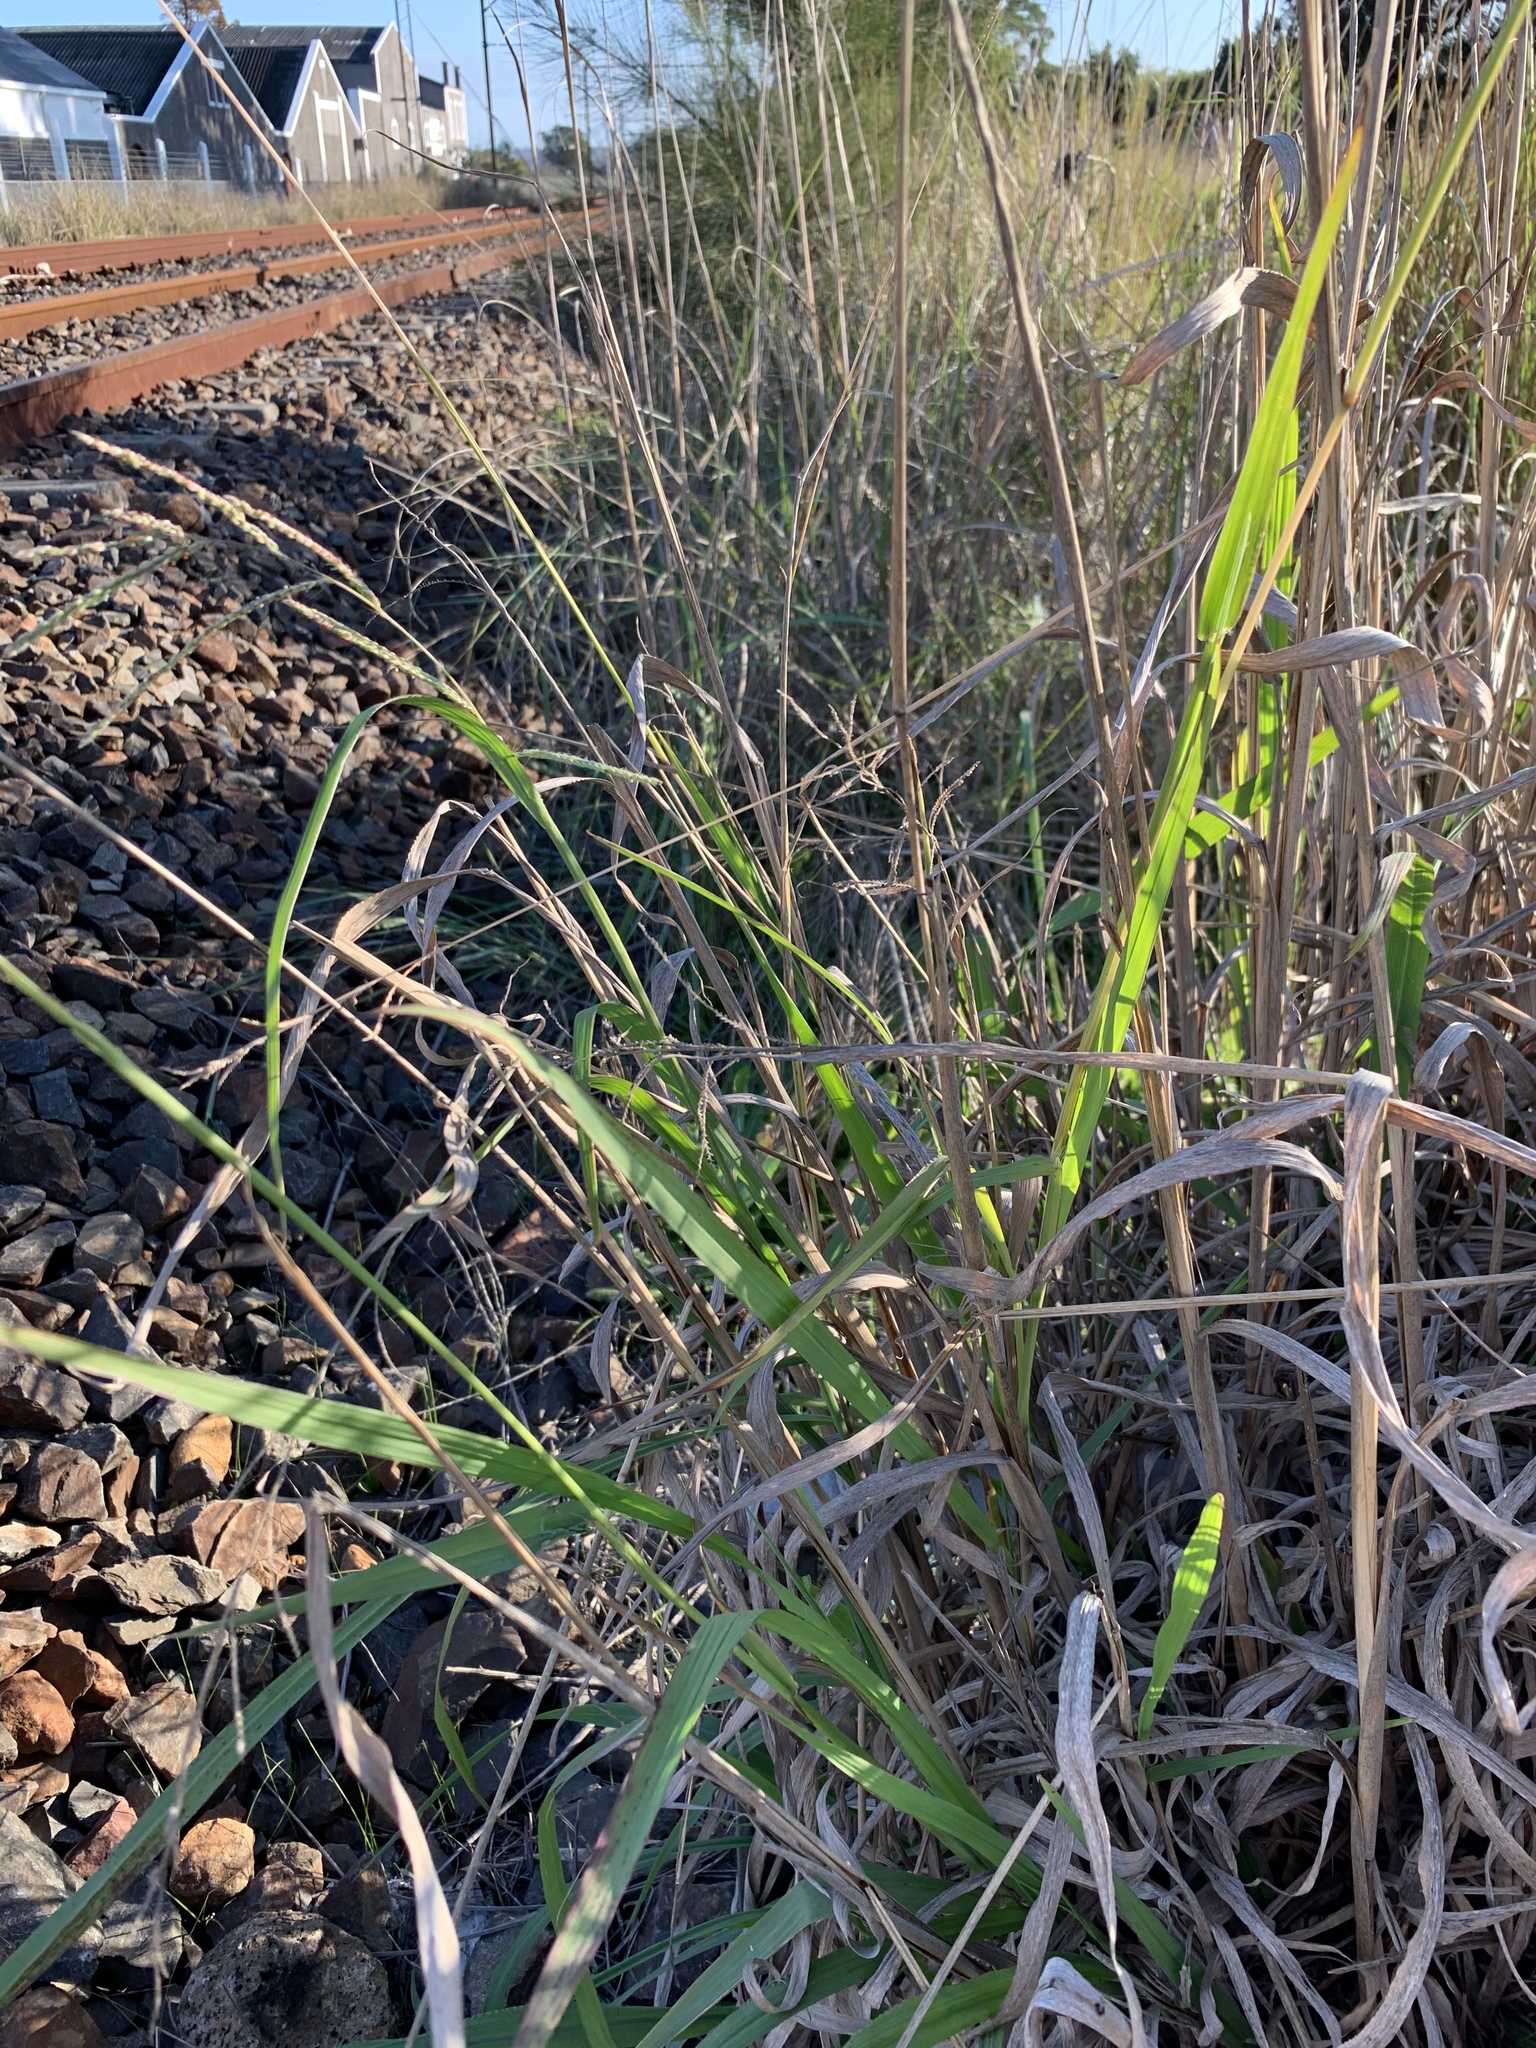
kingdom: Plantae
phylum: Tracheophyta
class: Liliopsida
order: Poales
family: Poaceae
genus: Paspalum
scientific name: Paspalum urvillei
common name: Vasey's grass
